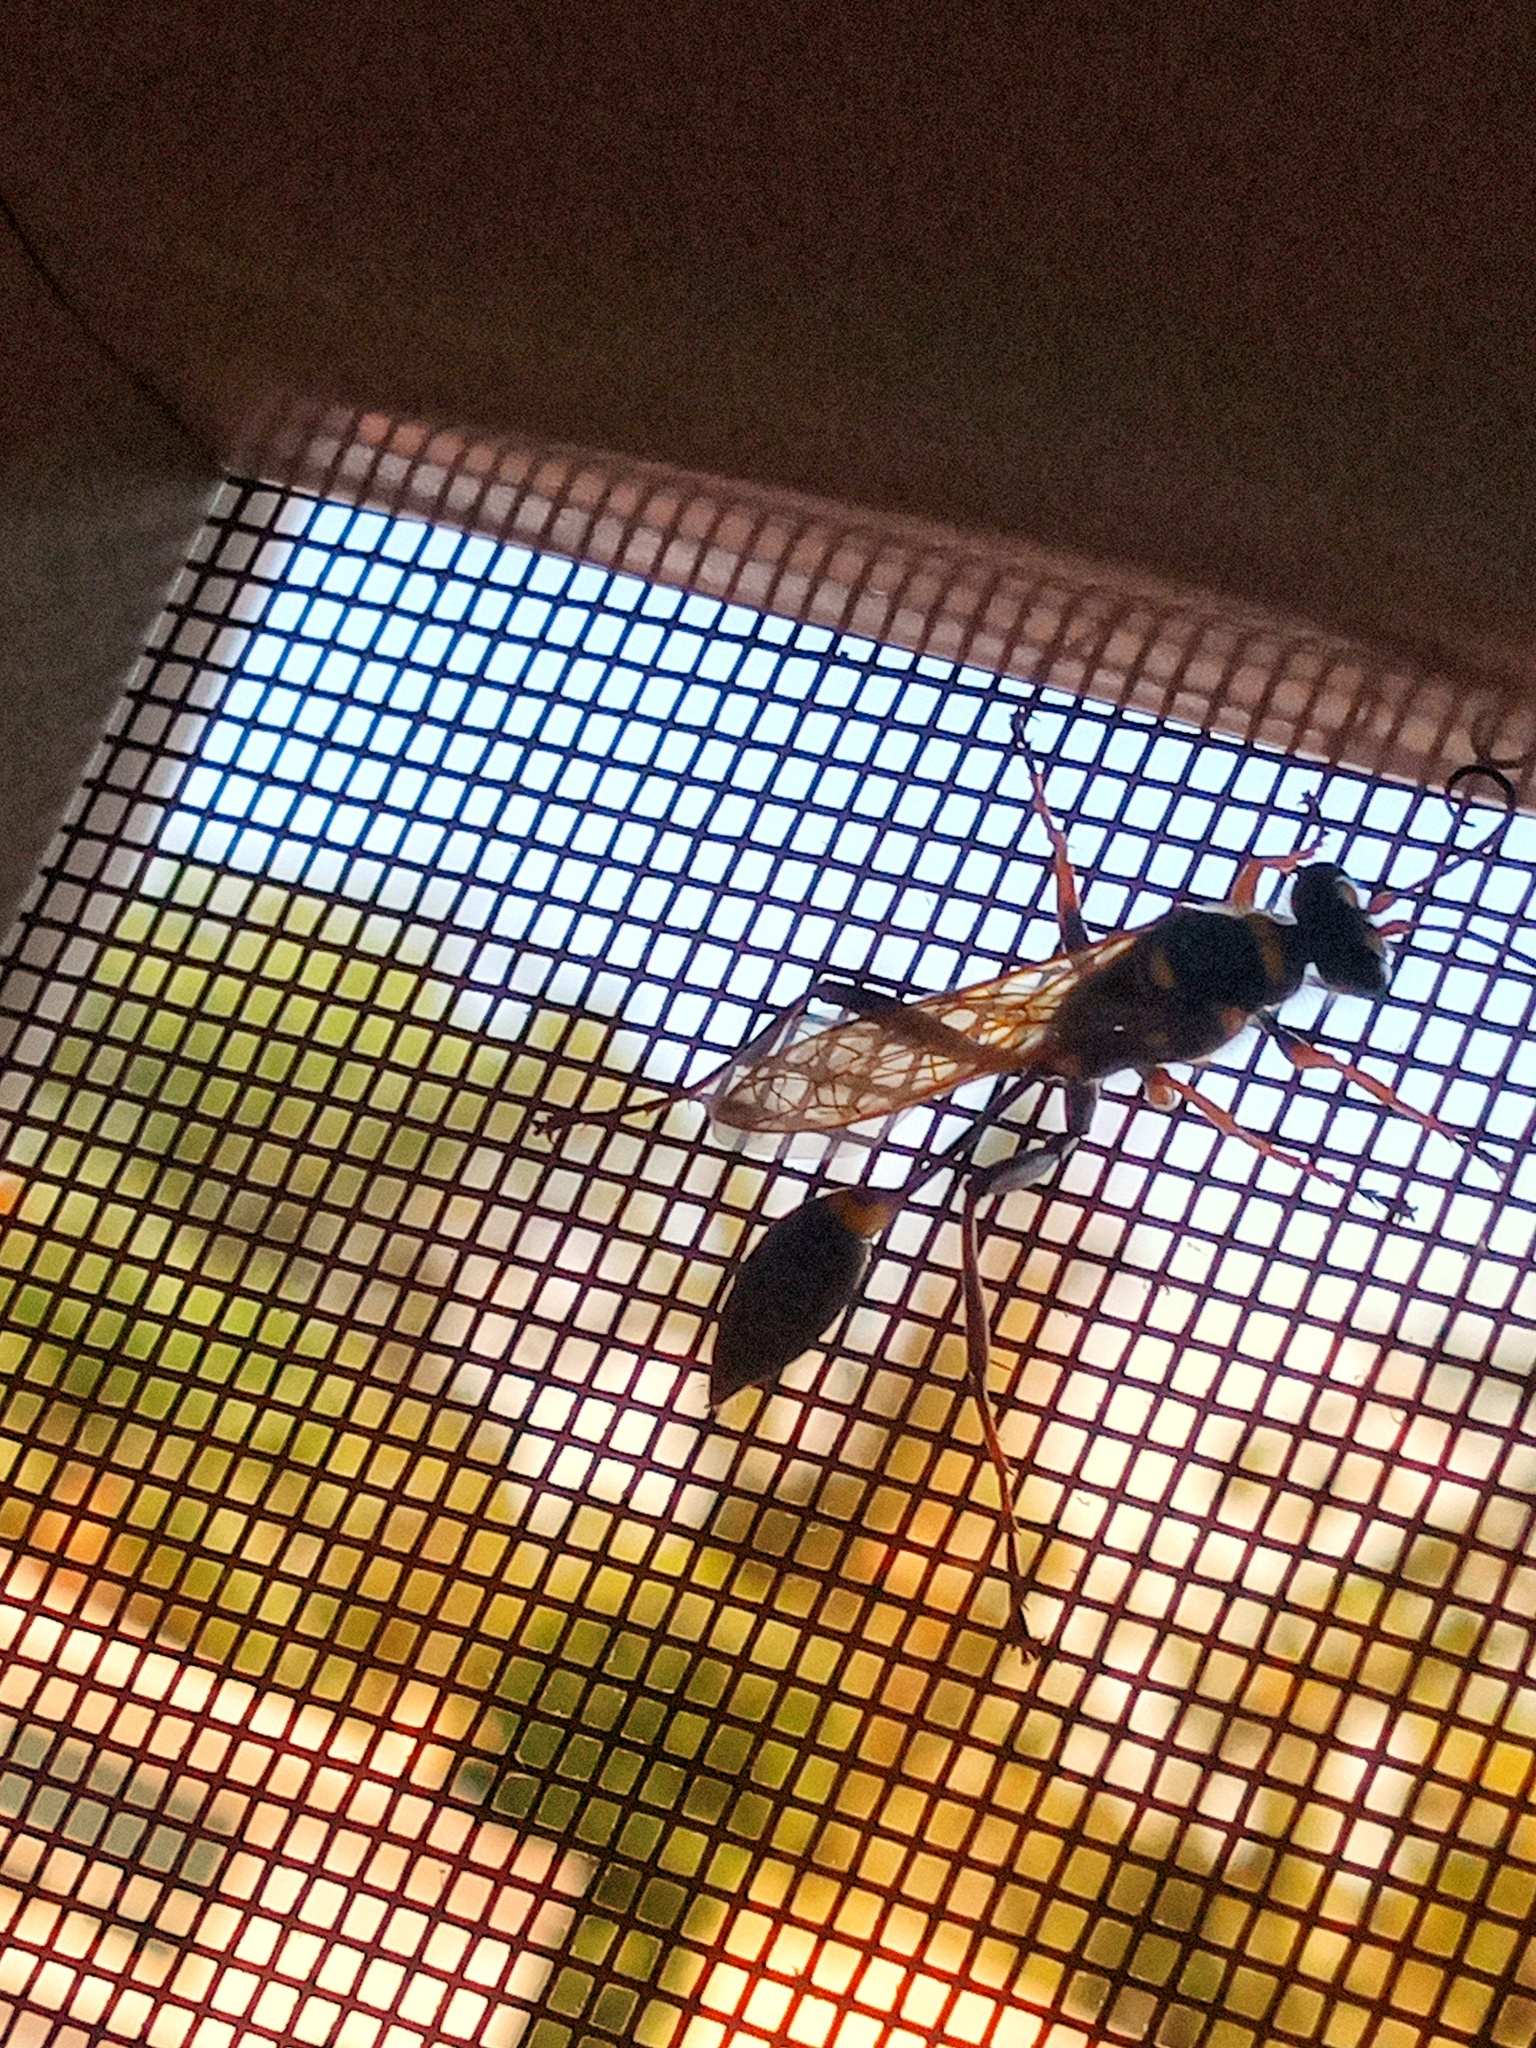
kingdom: Animalia
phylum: Arthropoda
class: Insecta
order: Hymenoptera
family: Sphecidae
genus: Sceliphron
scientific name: Sceliphron caementarium
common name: Mud dauber
